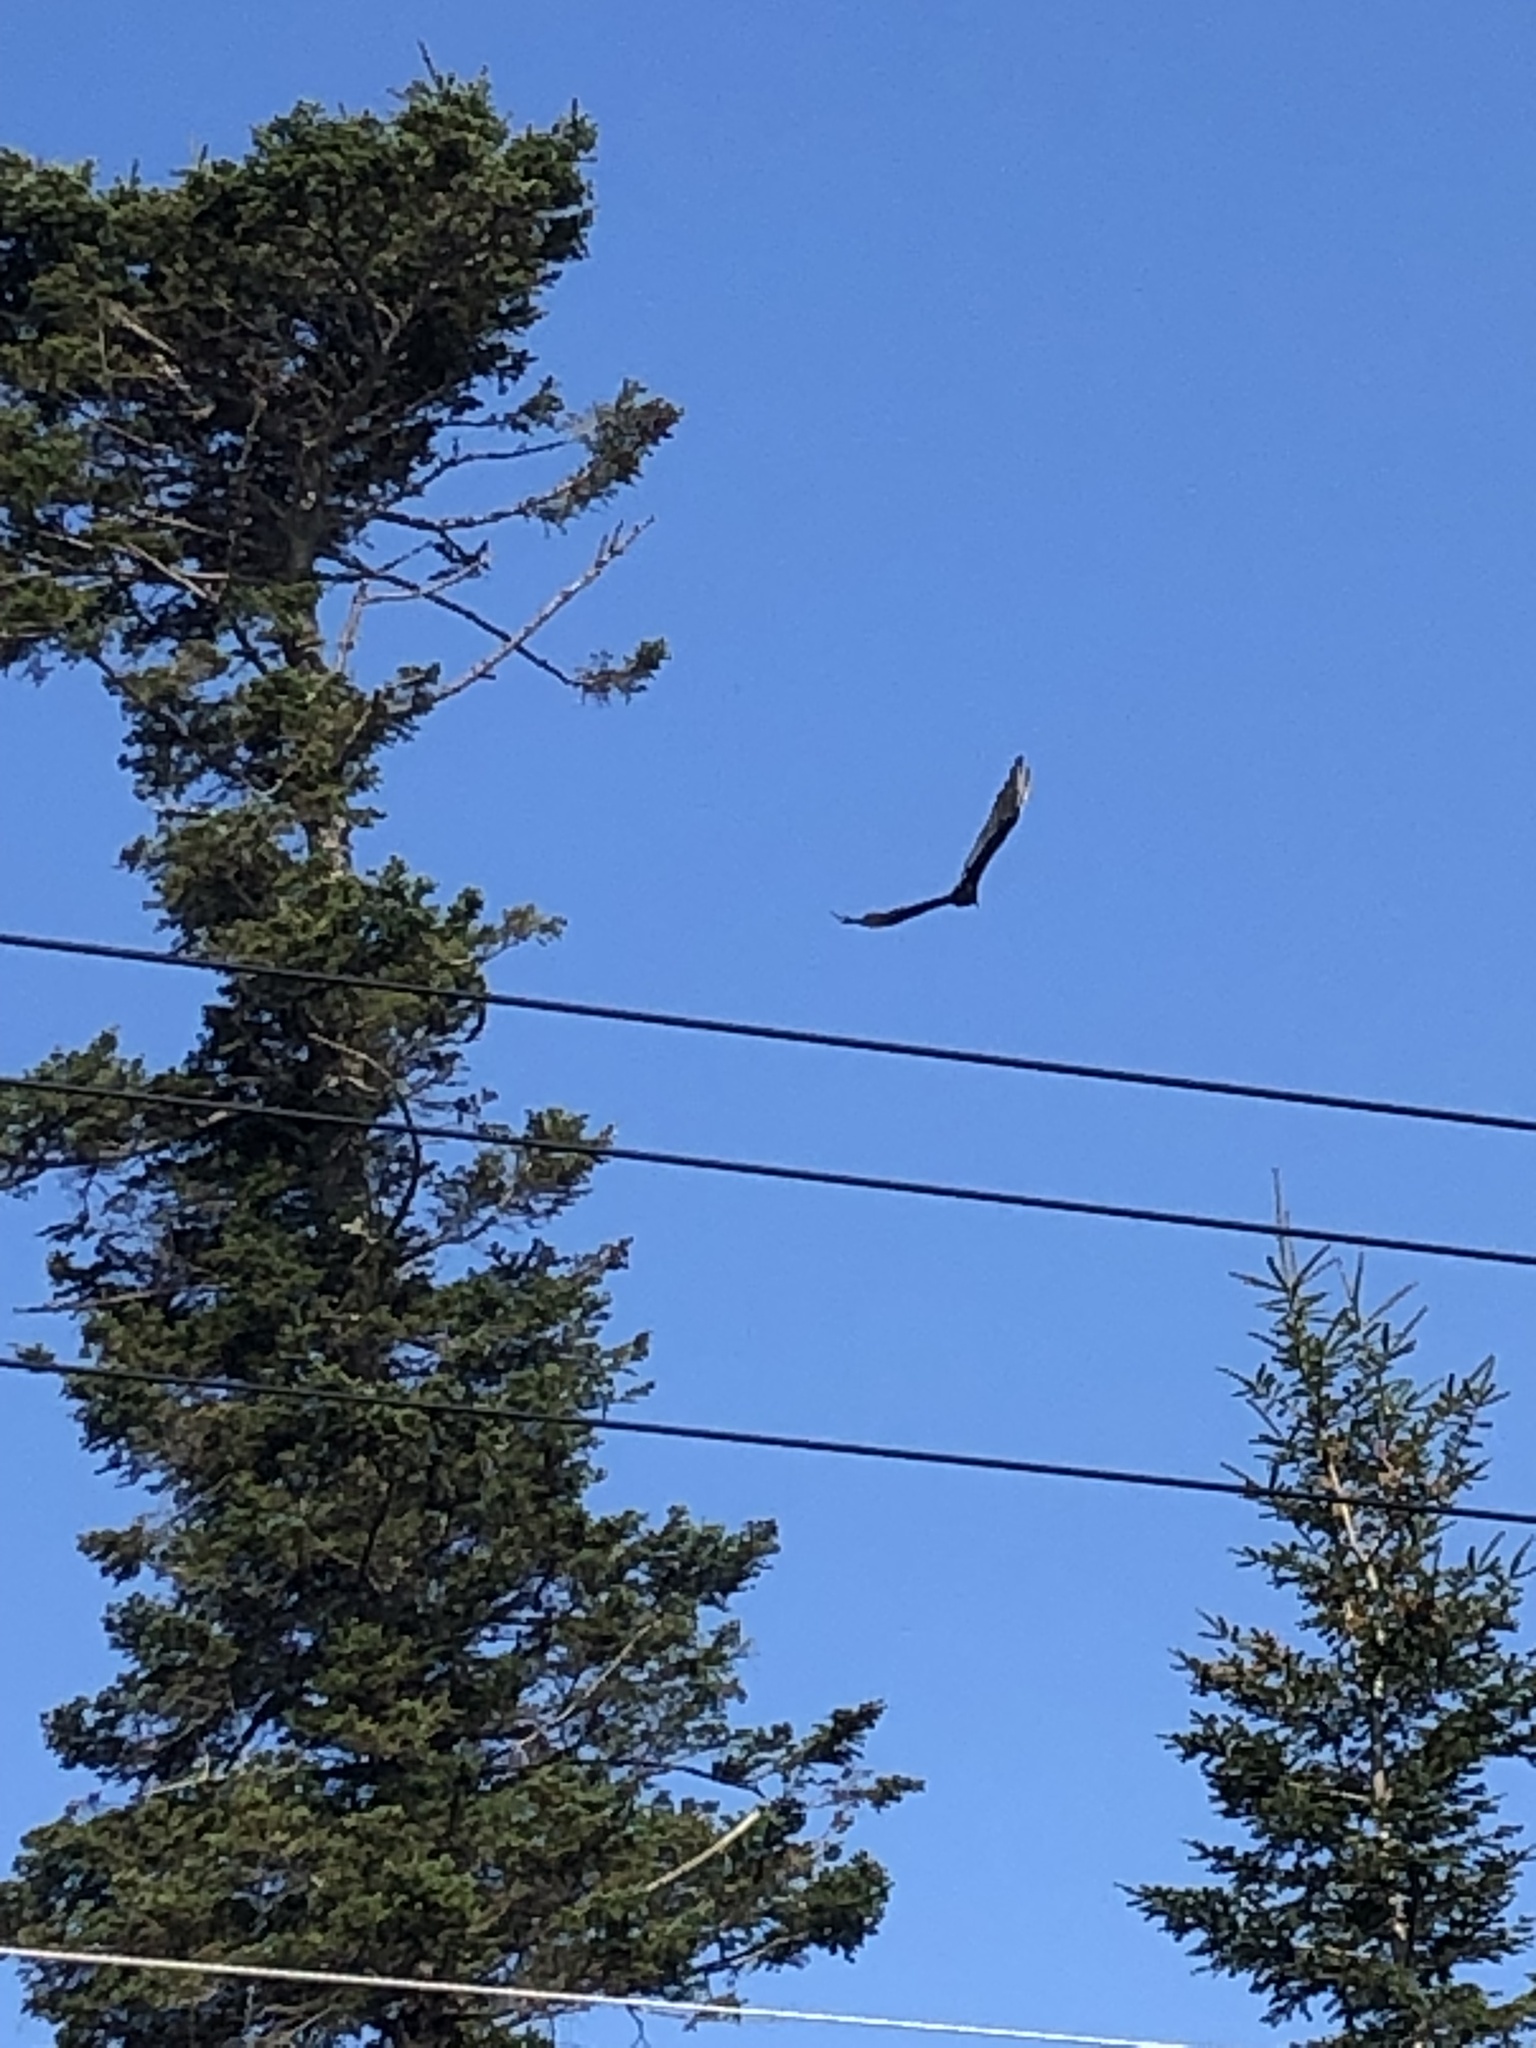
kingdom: Animalia
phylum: Chordata
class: Aves
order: Accipitriformes
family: Cathartidae
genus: Cathartes
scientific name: Cathartes aura
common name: Turkey vulture
